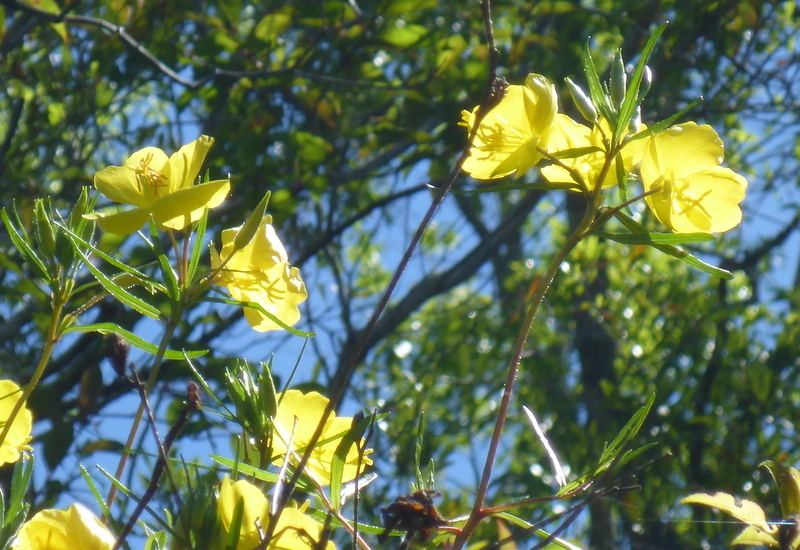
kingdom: Plantae
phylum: Tracheophyta
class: Magnoliopsida
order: Myrtales
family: Onagraceae
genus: Oenothera
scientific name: Oenothera fruticosa
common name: Southern sundrops
